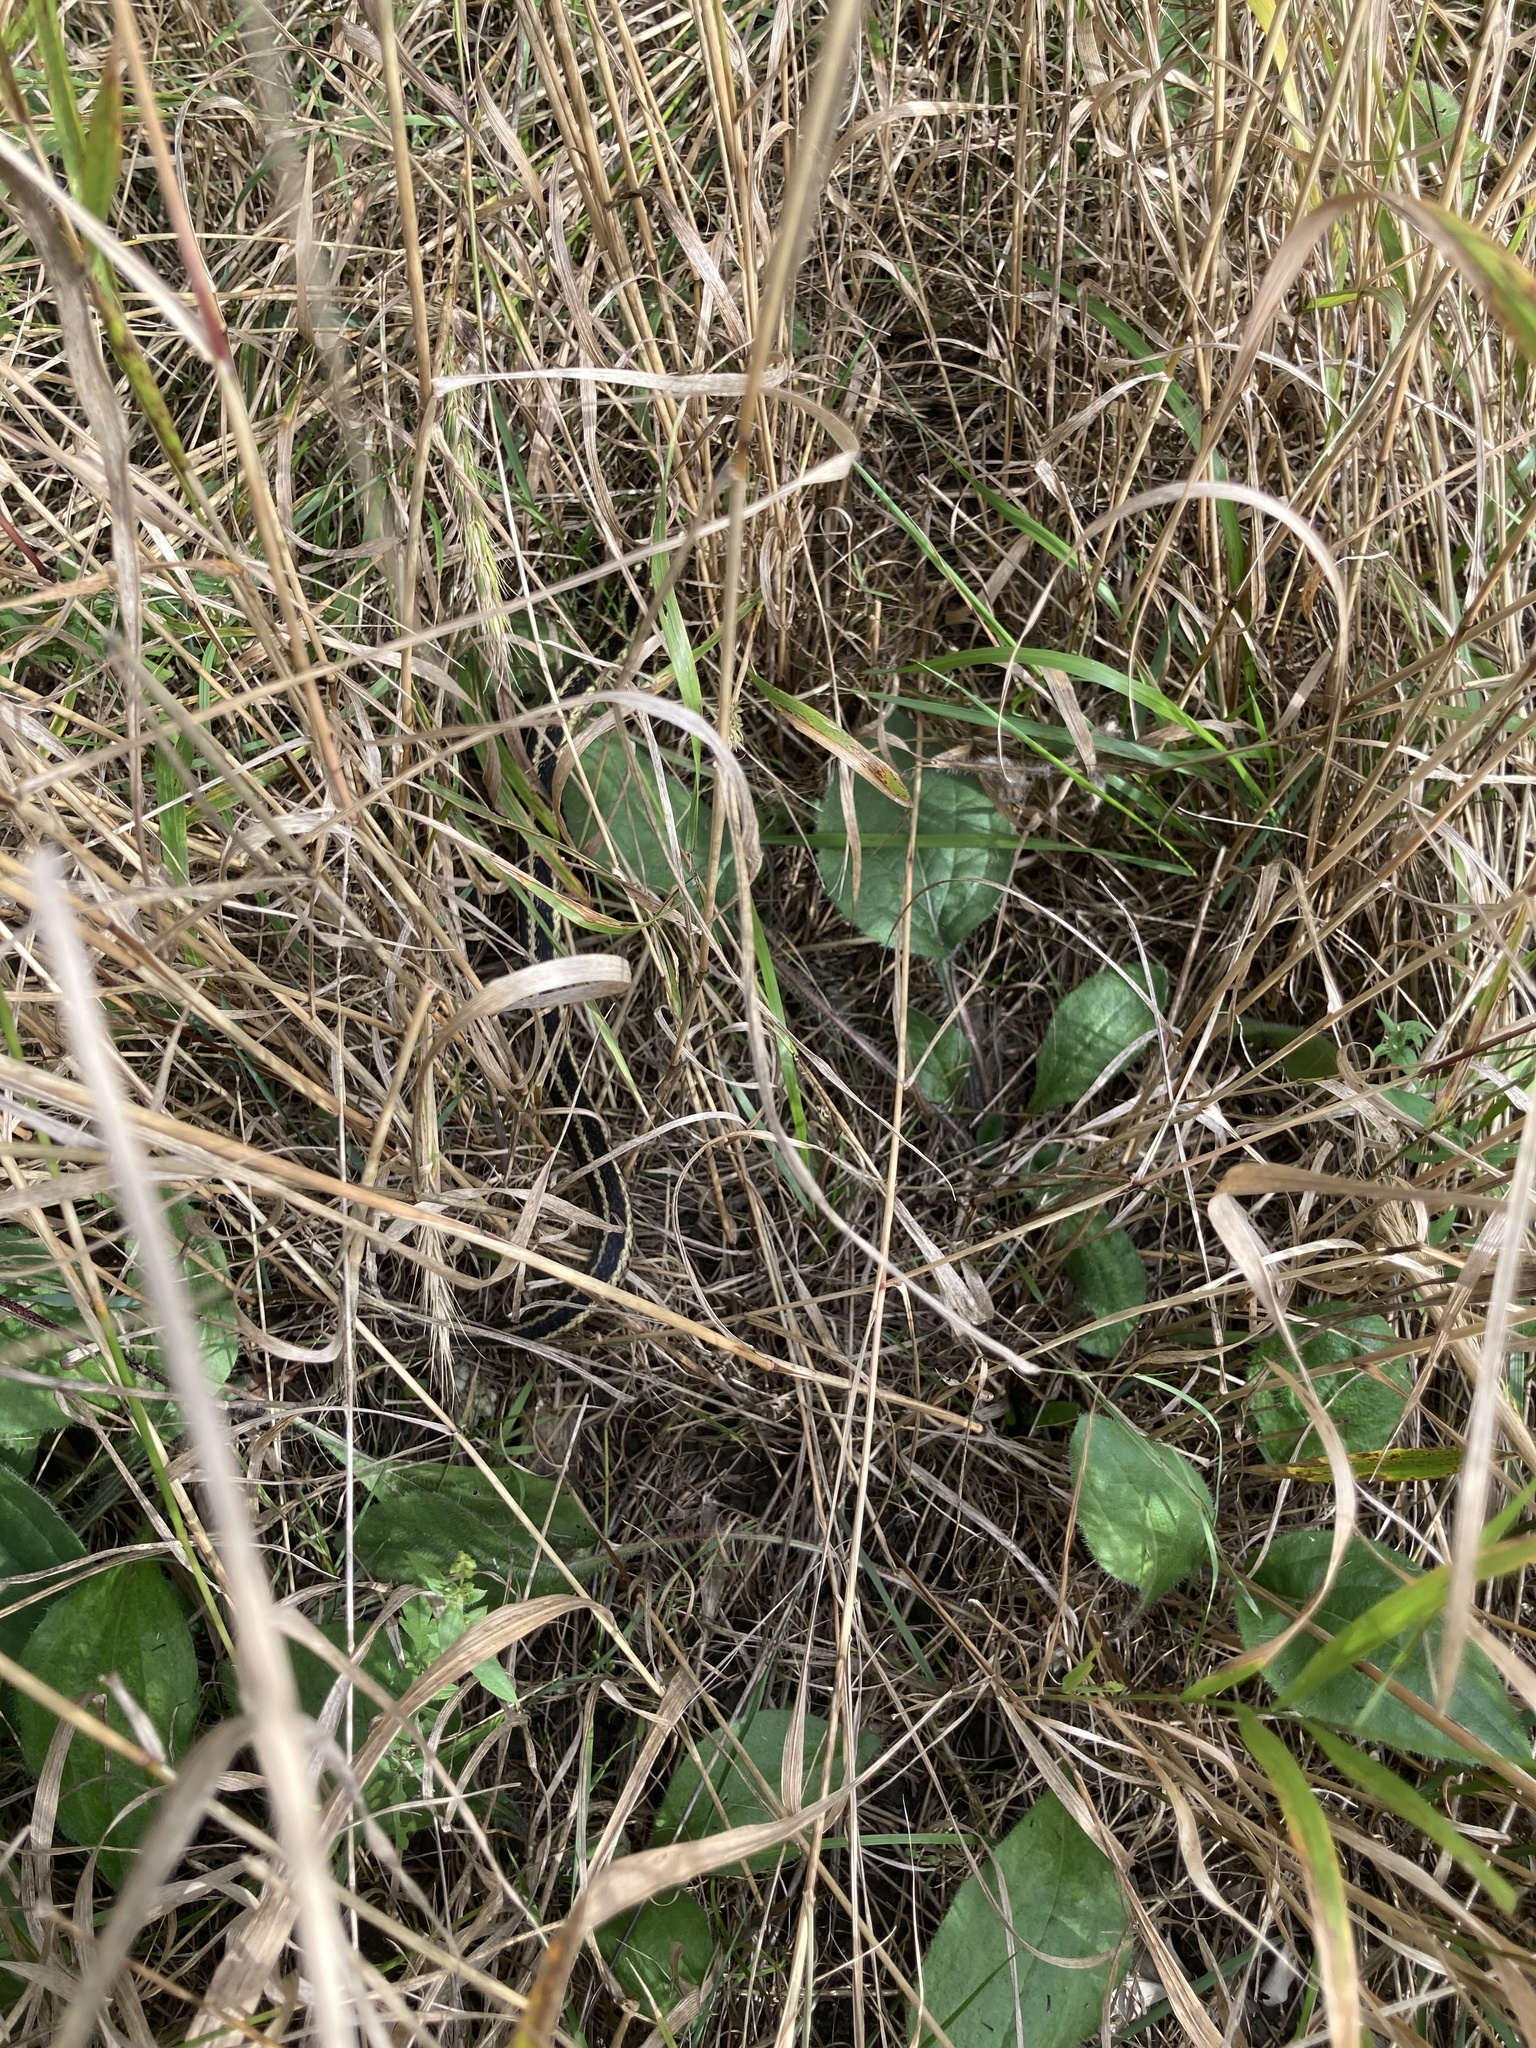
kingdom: Animalia
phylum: Chordata
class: Squamata
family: Colubridae
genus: Thamnophis
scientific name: Thamnophis sirtalis
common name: Common garter snake
